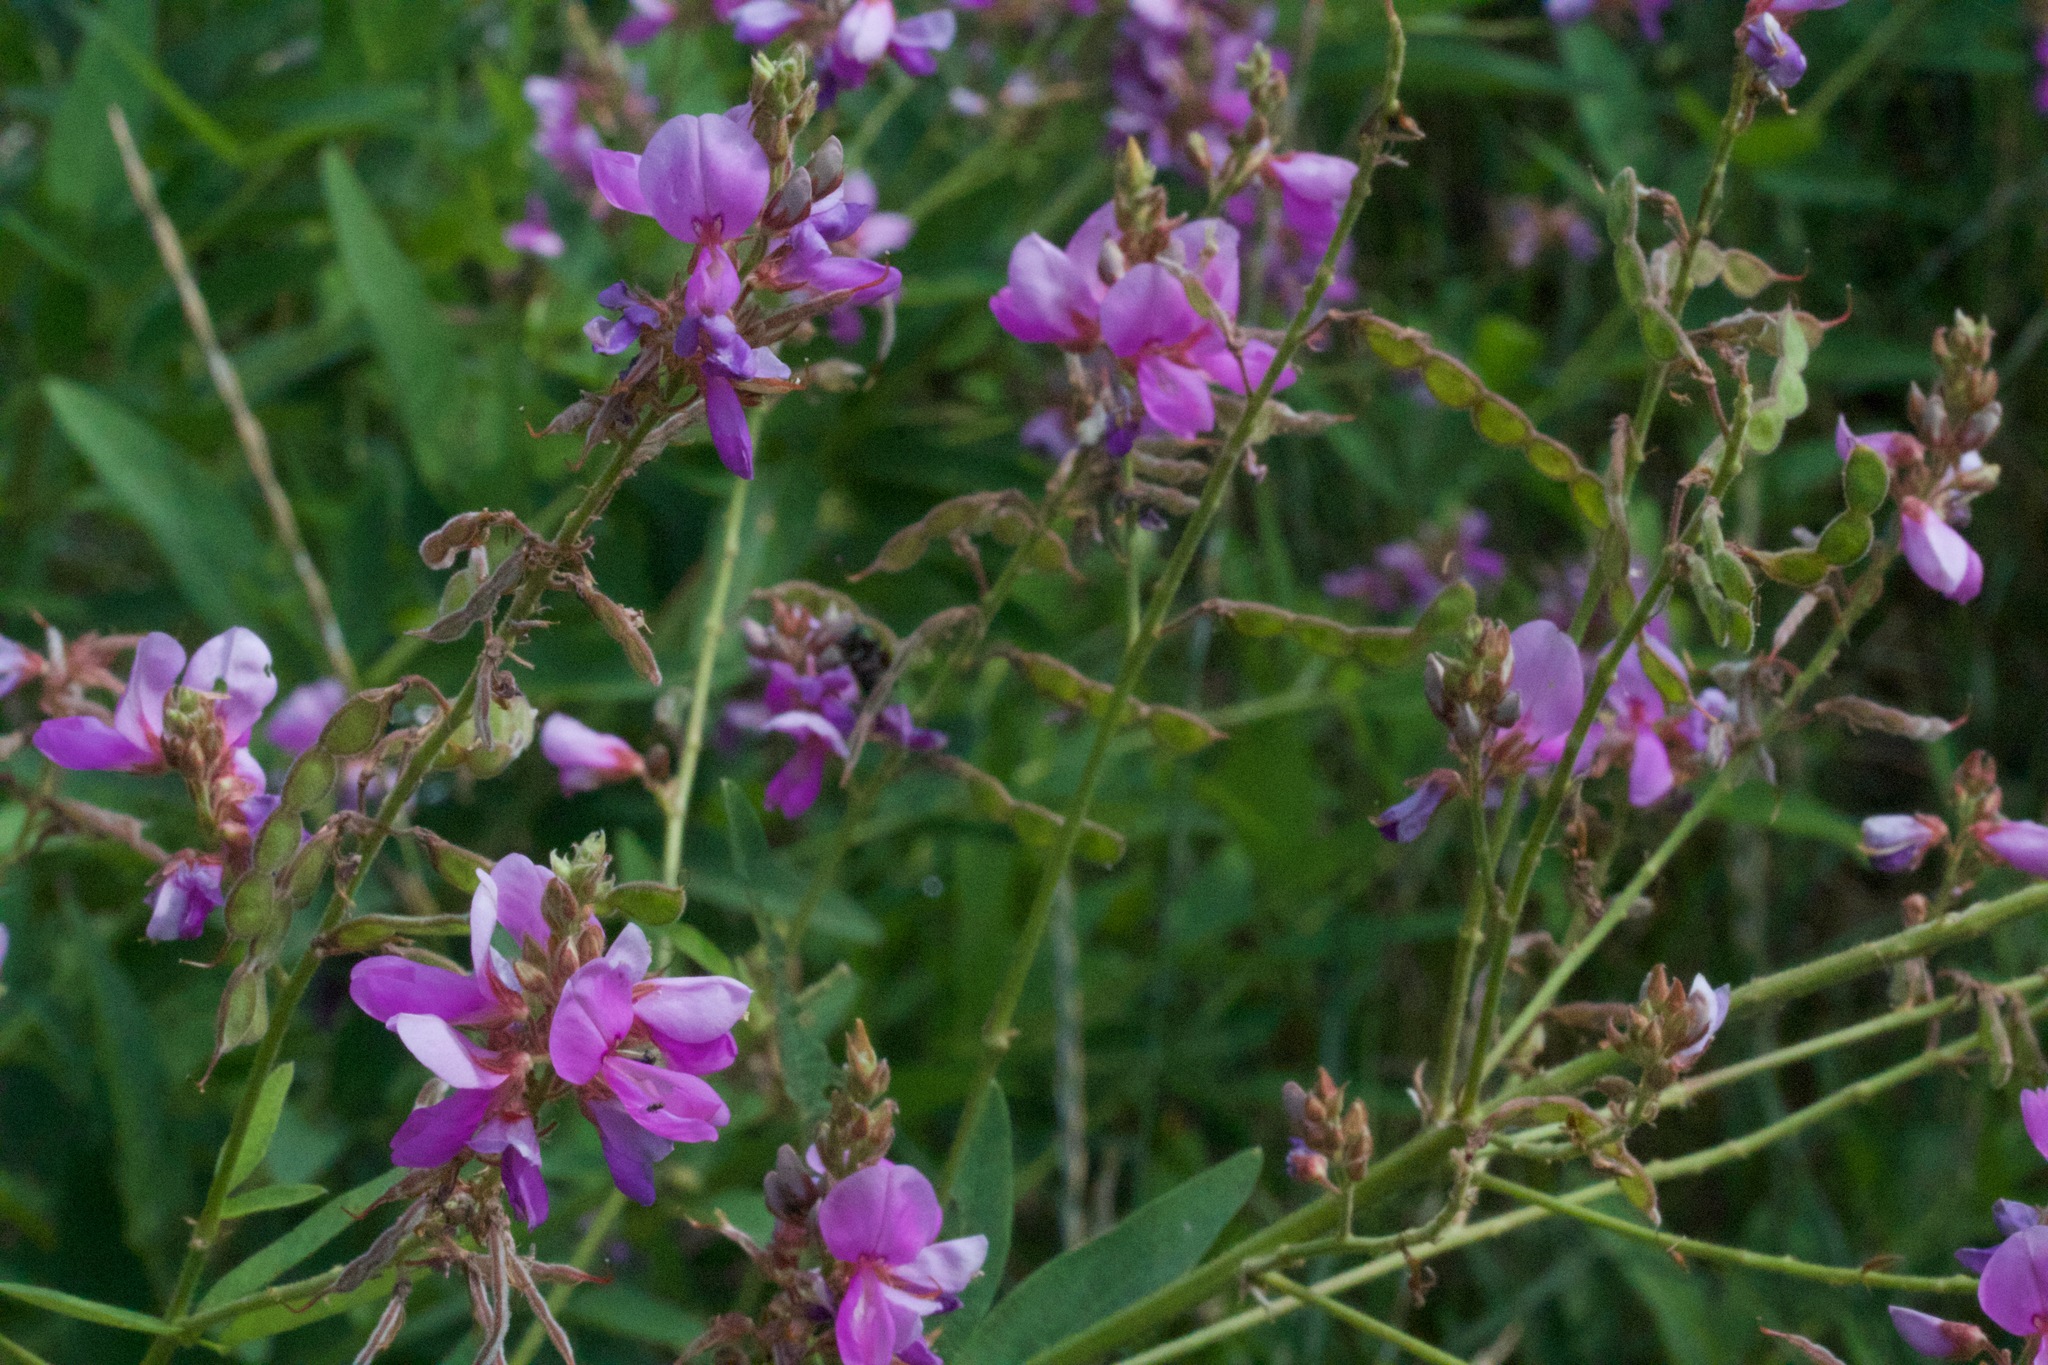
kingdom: Plantae
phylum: Tracheophyta
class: Magnoliopsida
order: Fabales
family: Fabaceae
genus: Desmodium
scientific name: Desmodium canadense
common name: Canada tick-trefoil
